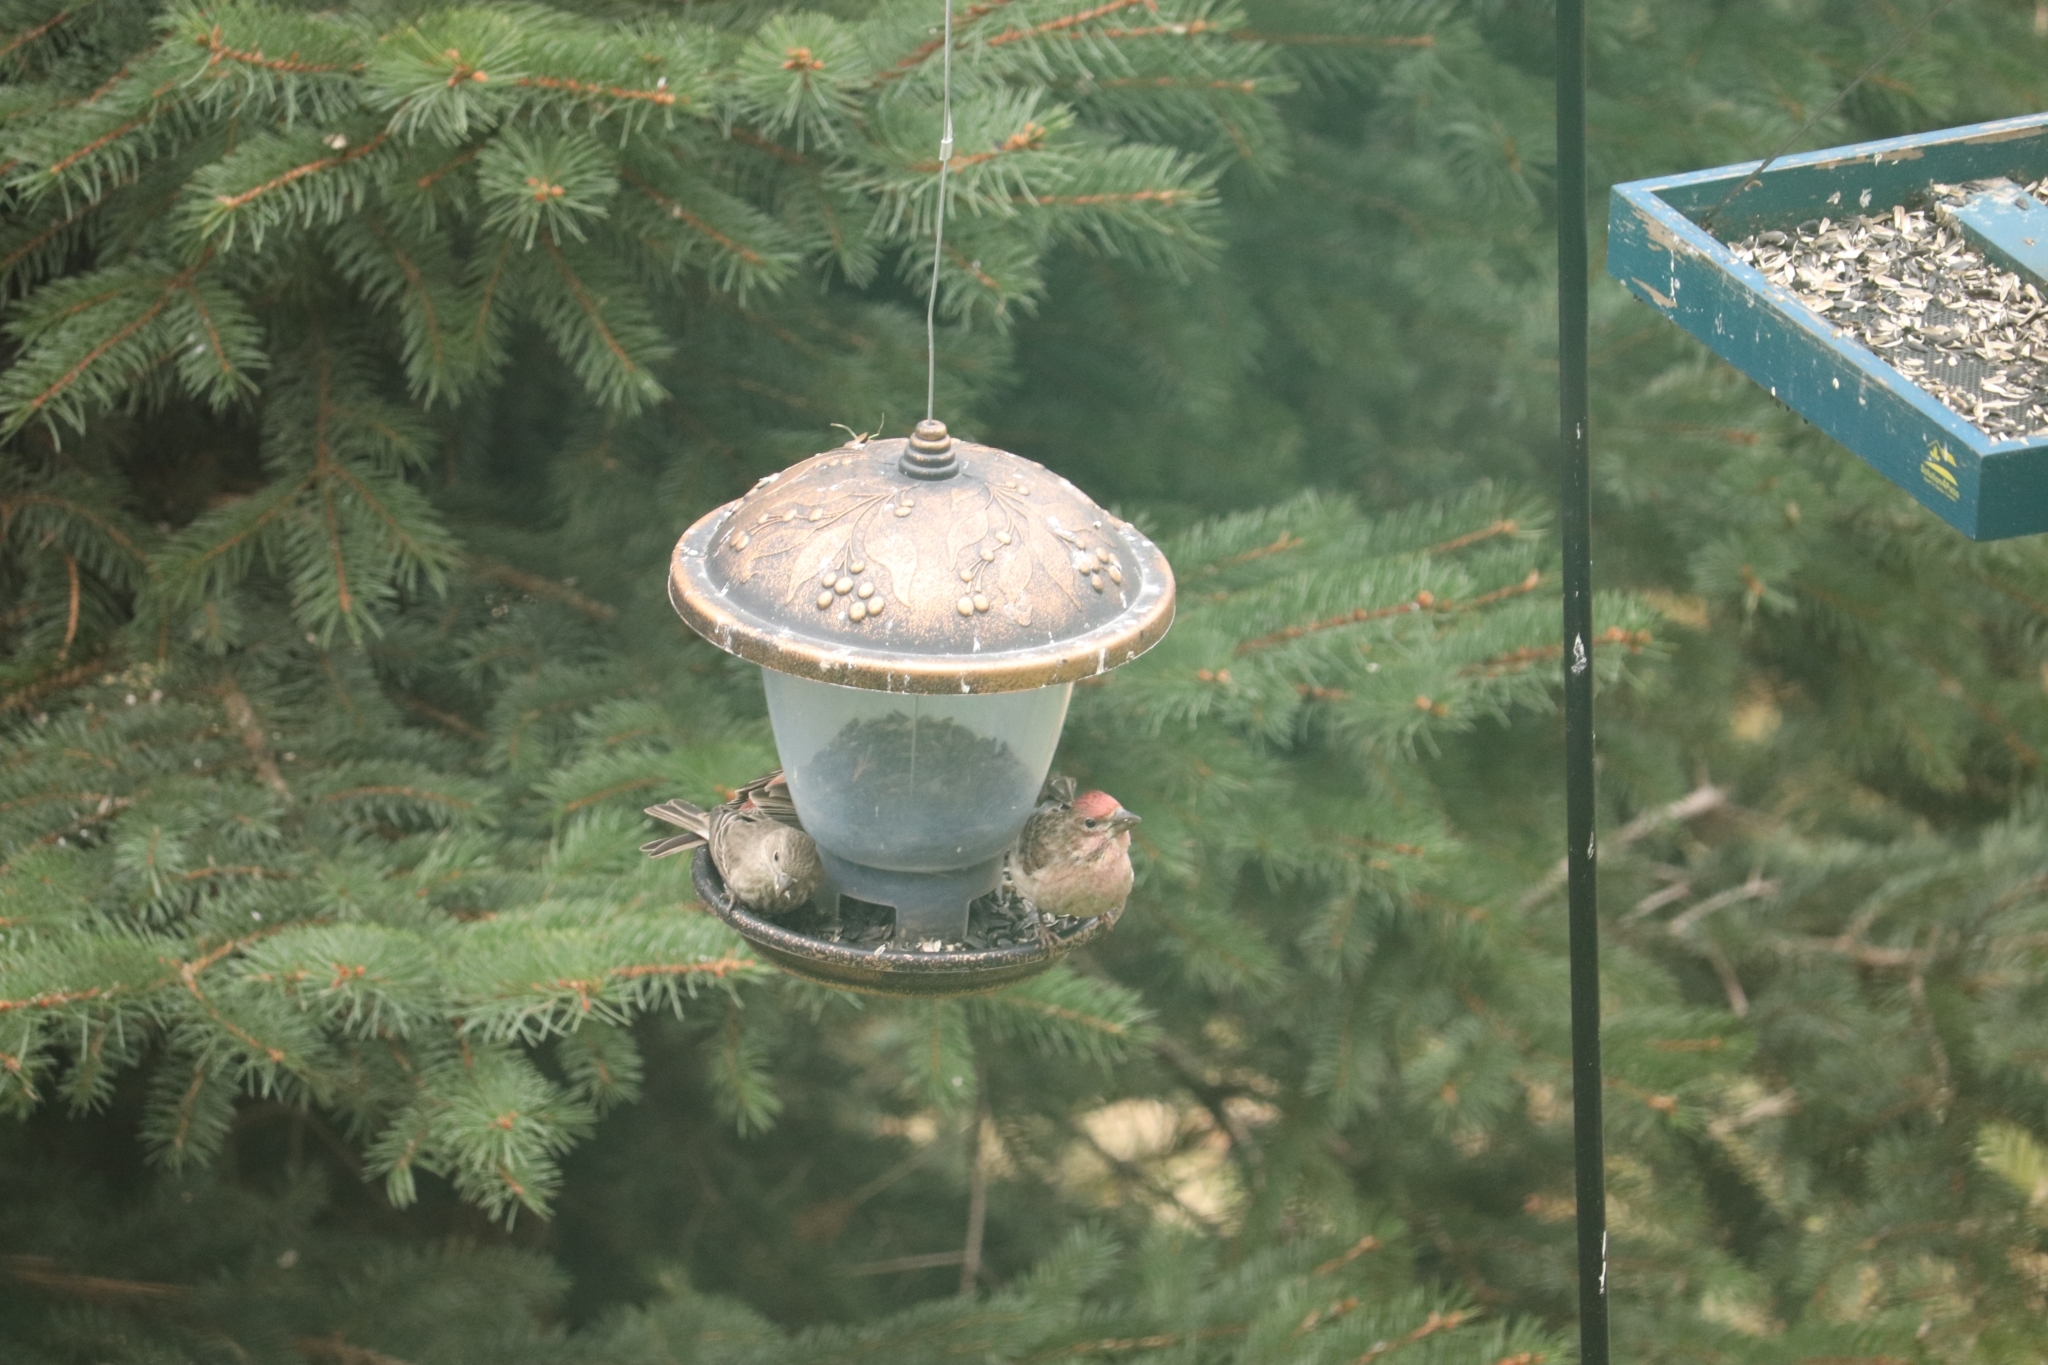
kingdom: Animalia
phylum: Chordata
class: Aves
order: Passeriformes
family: Fringillidae
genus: Haemorhous
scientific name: Haemorhous cassinii
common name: Cassin's finch
